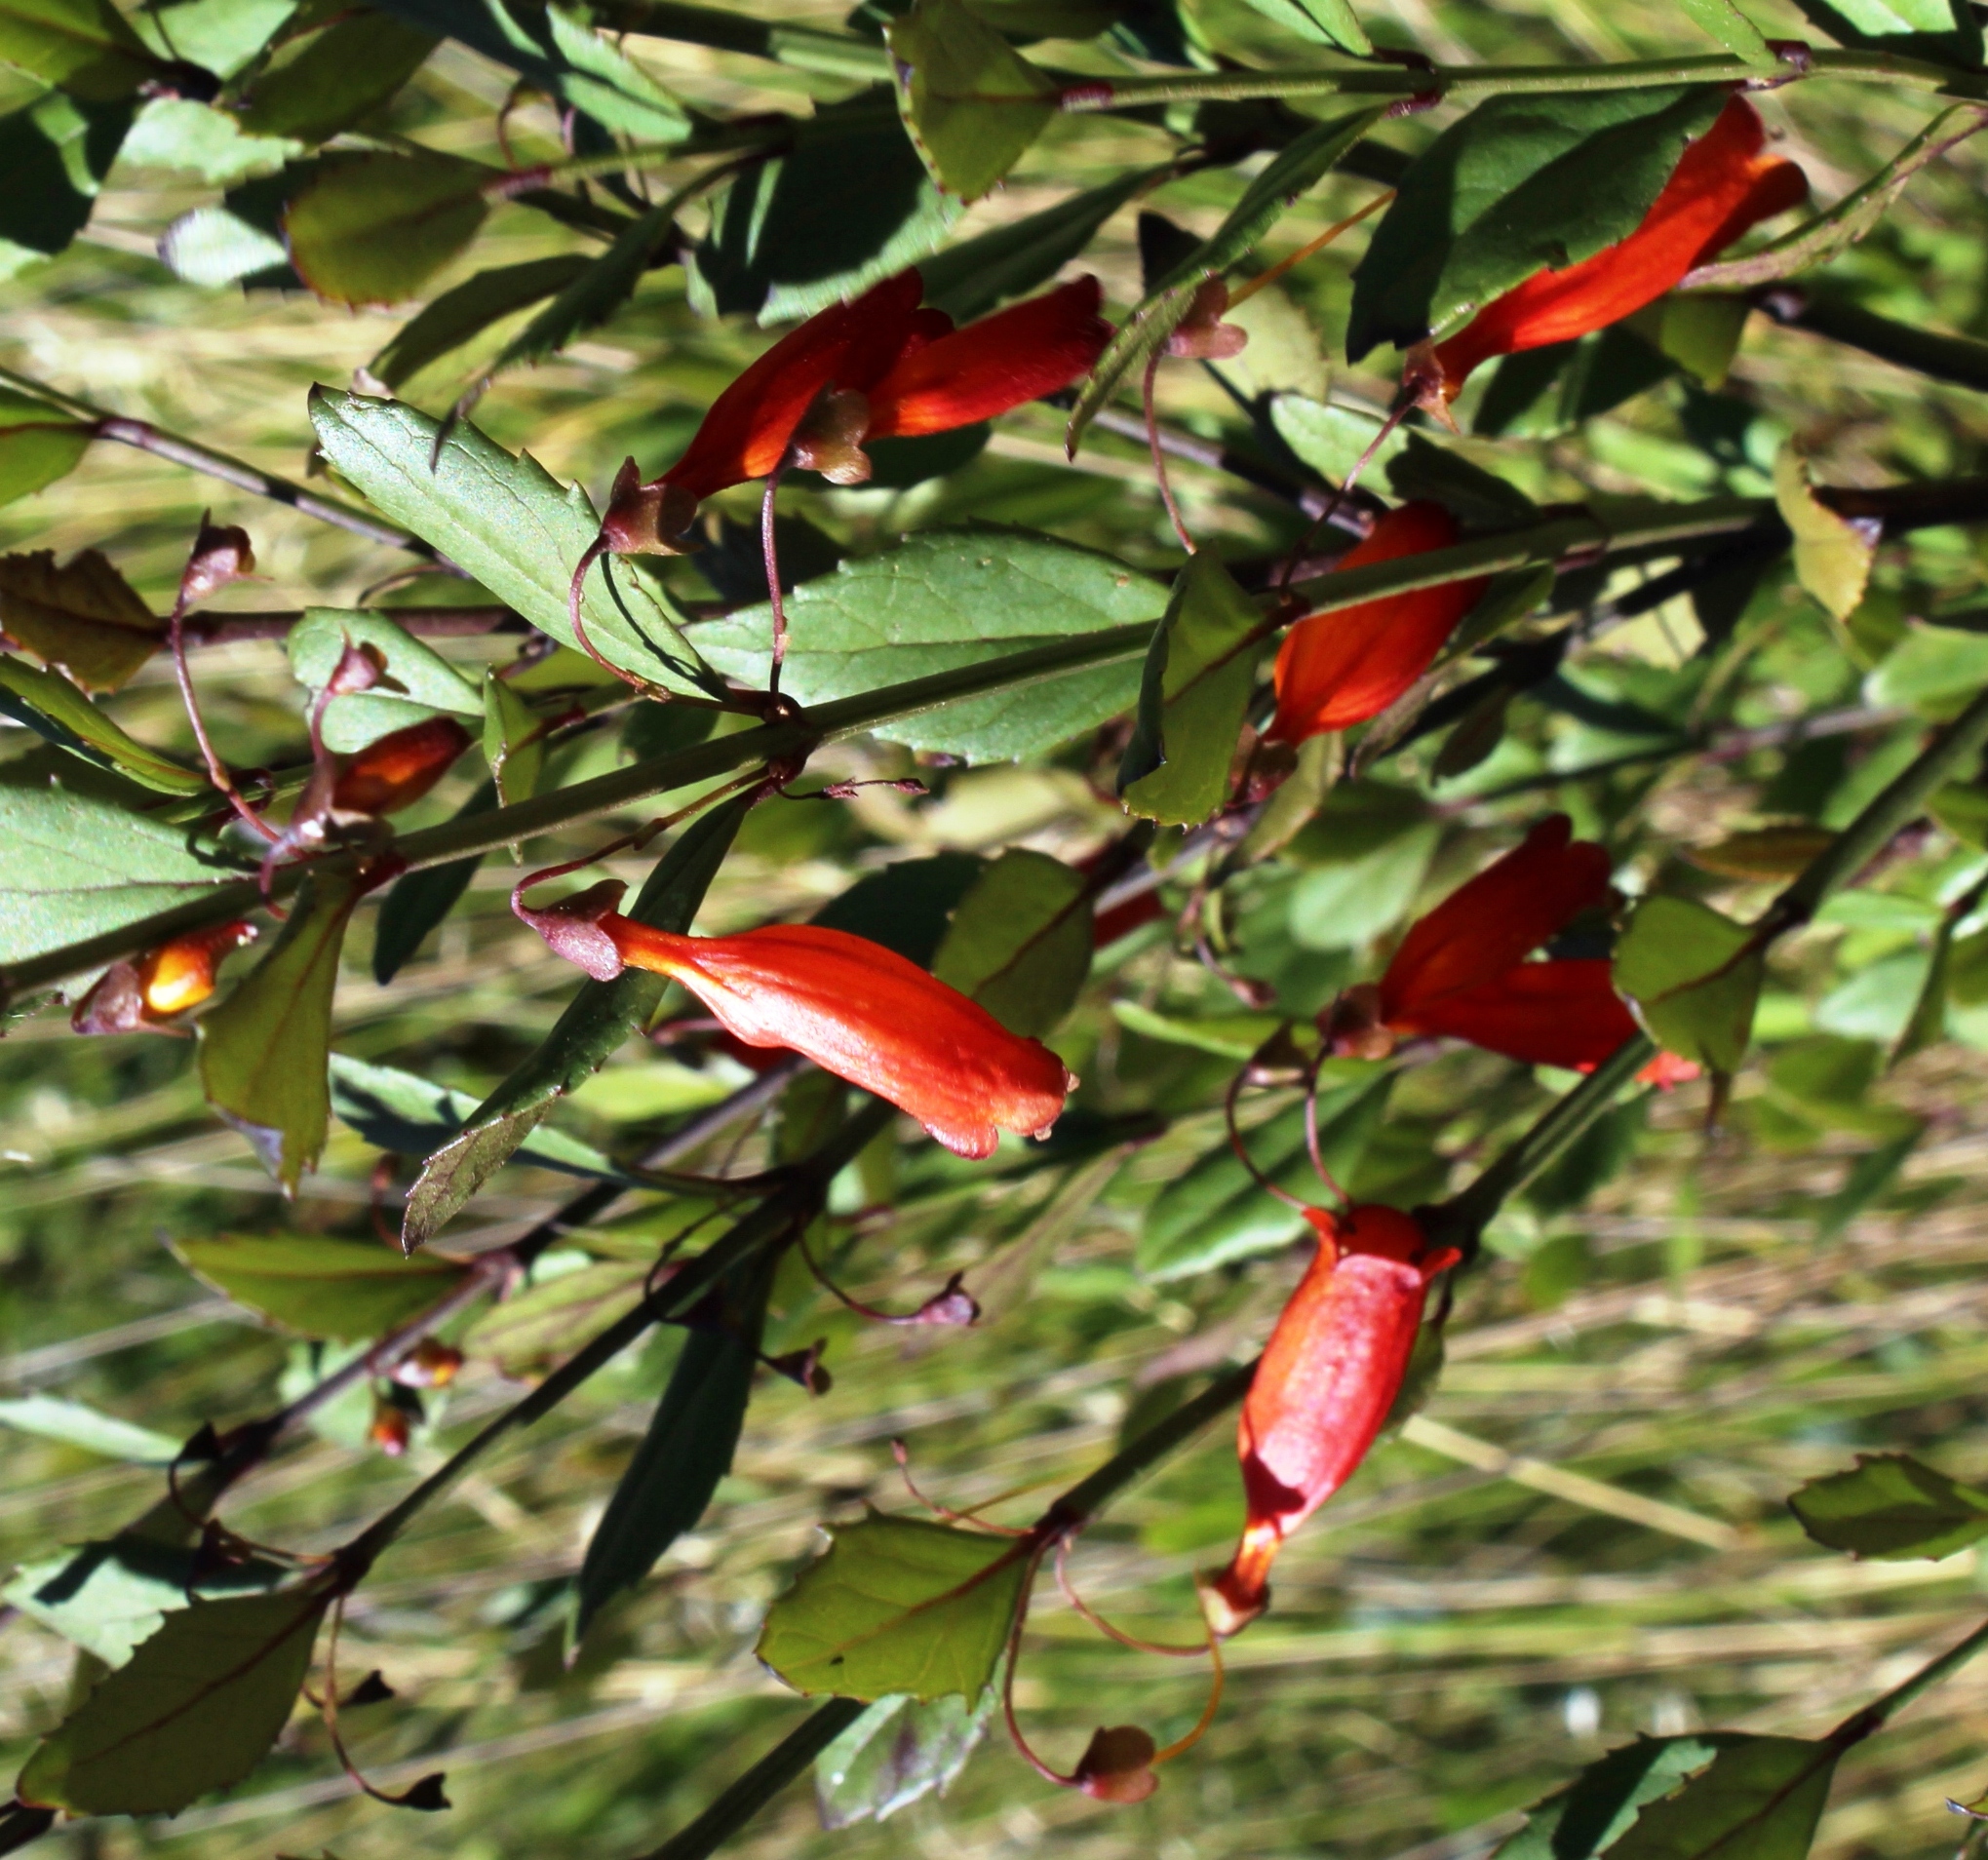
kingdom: Plantae
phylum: Tracheophyta
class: Magnoliopsida
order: Lamiales
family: Stilbaceae
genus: Halleria
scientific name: Halleria elliptica
